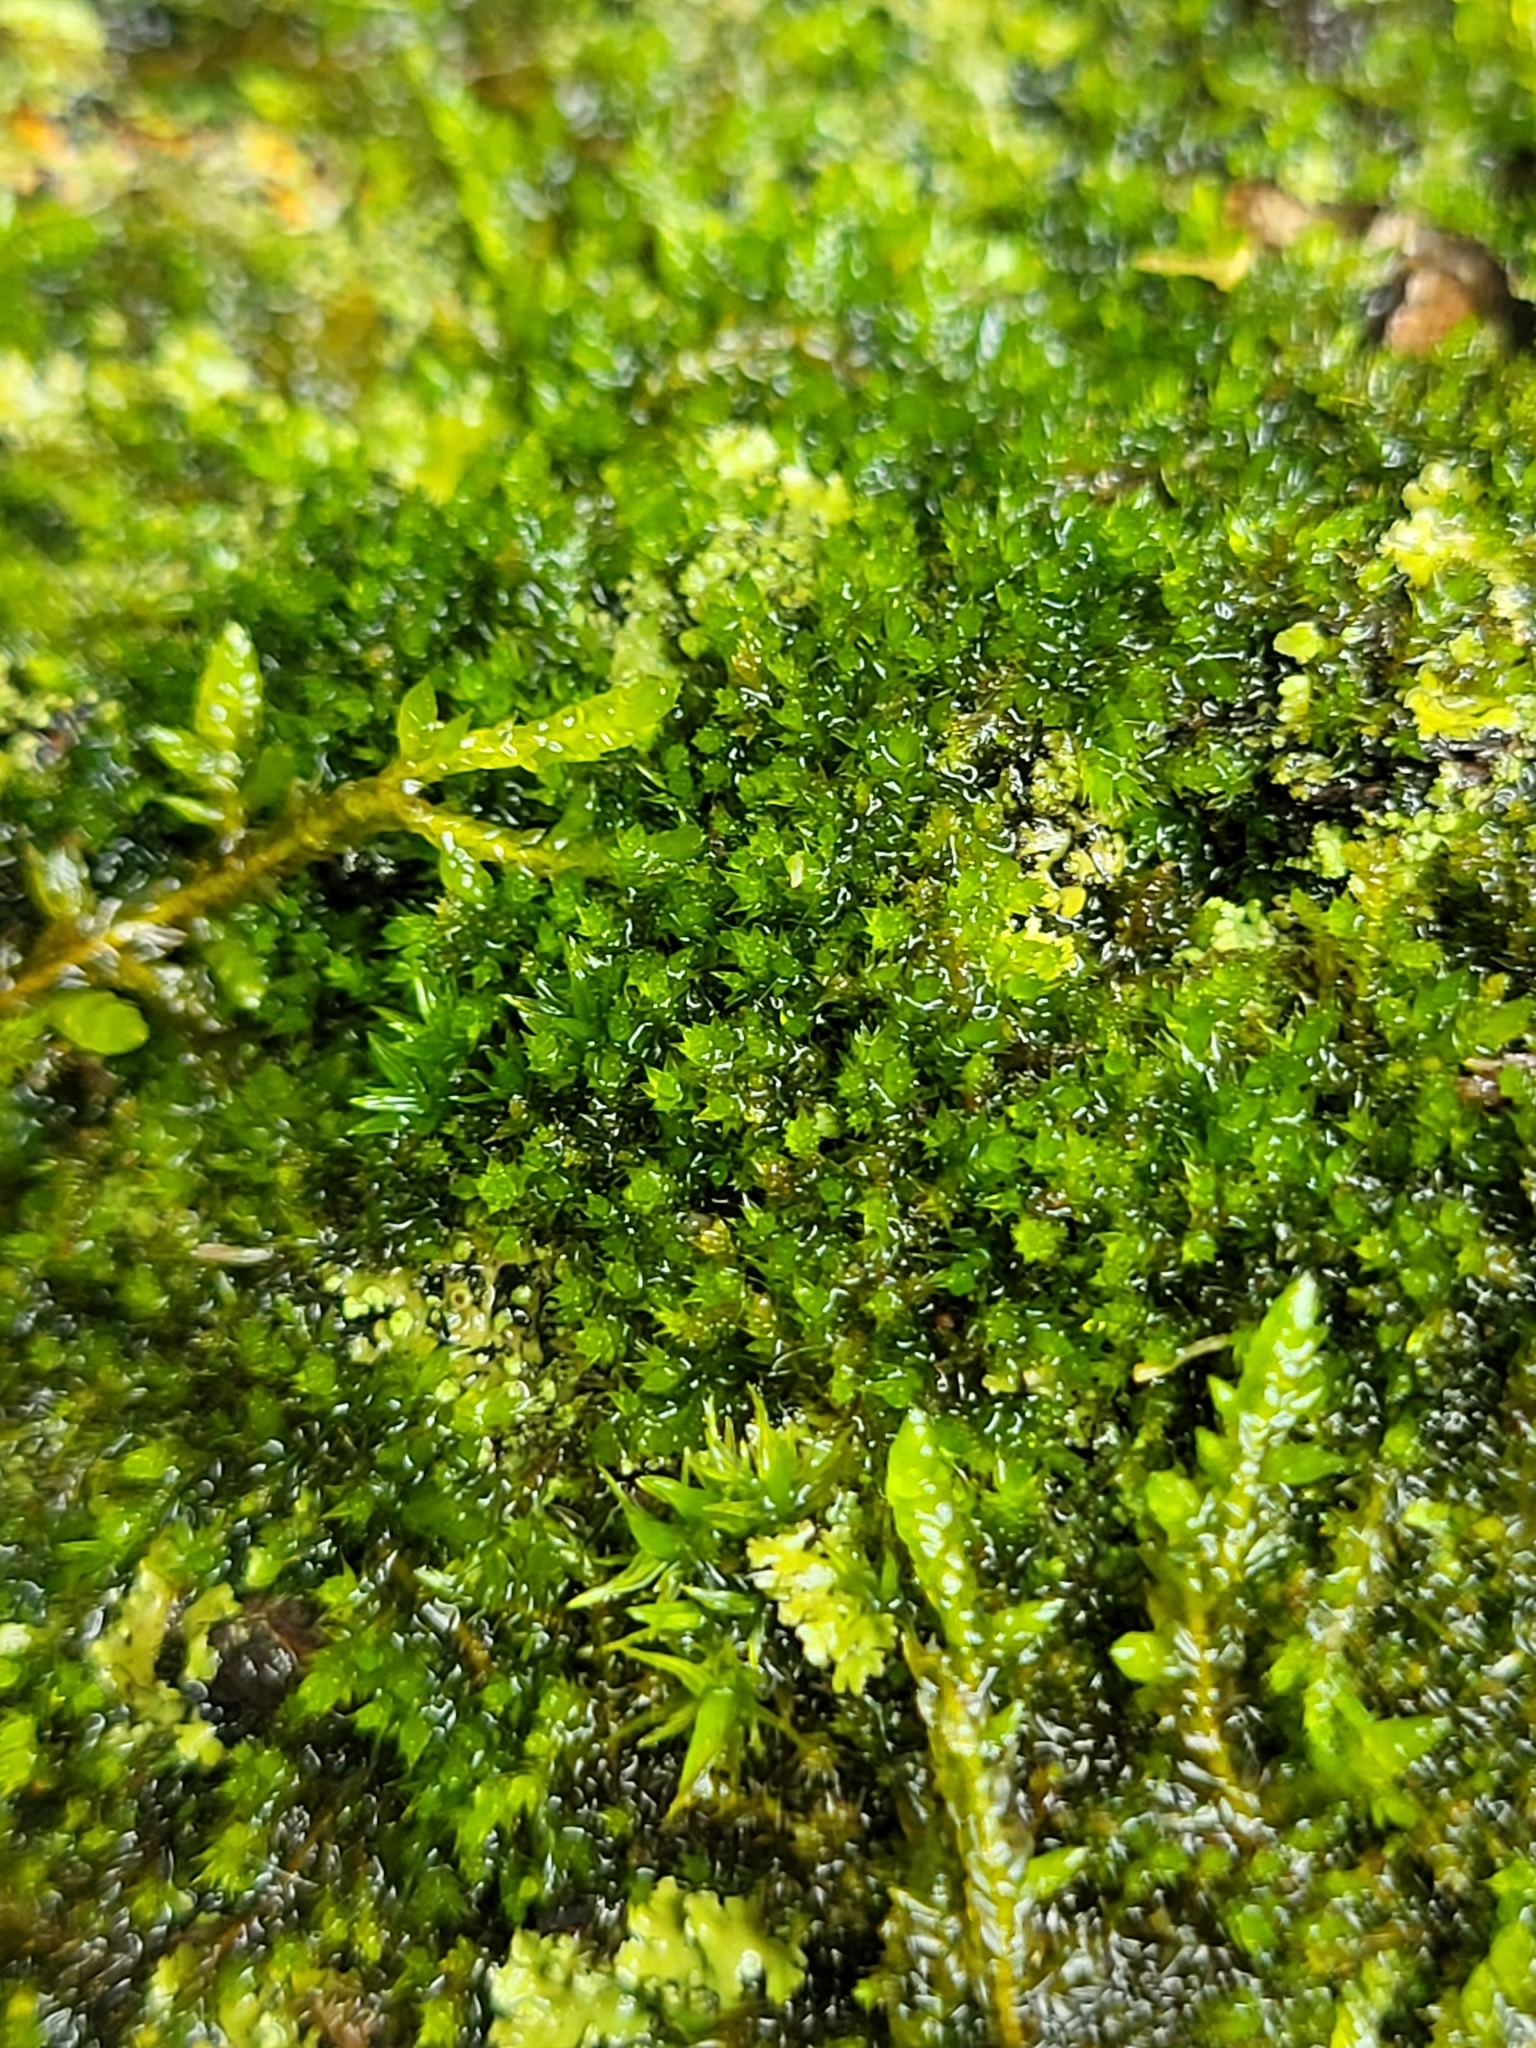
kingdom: Plantae
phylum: Bryophyta
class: Bryopsida
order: Hypnales
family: Pylaisiadelphaceae
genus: Platygyrium
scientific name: Platygyrium repens
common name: Flat-brocade moss
